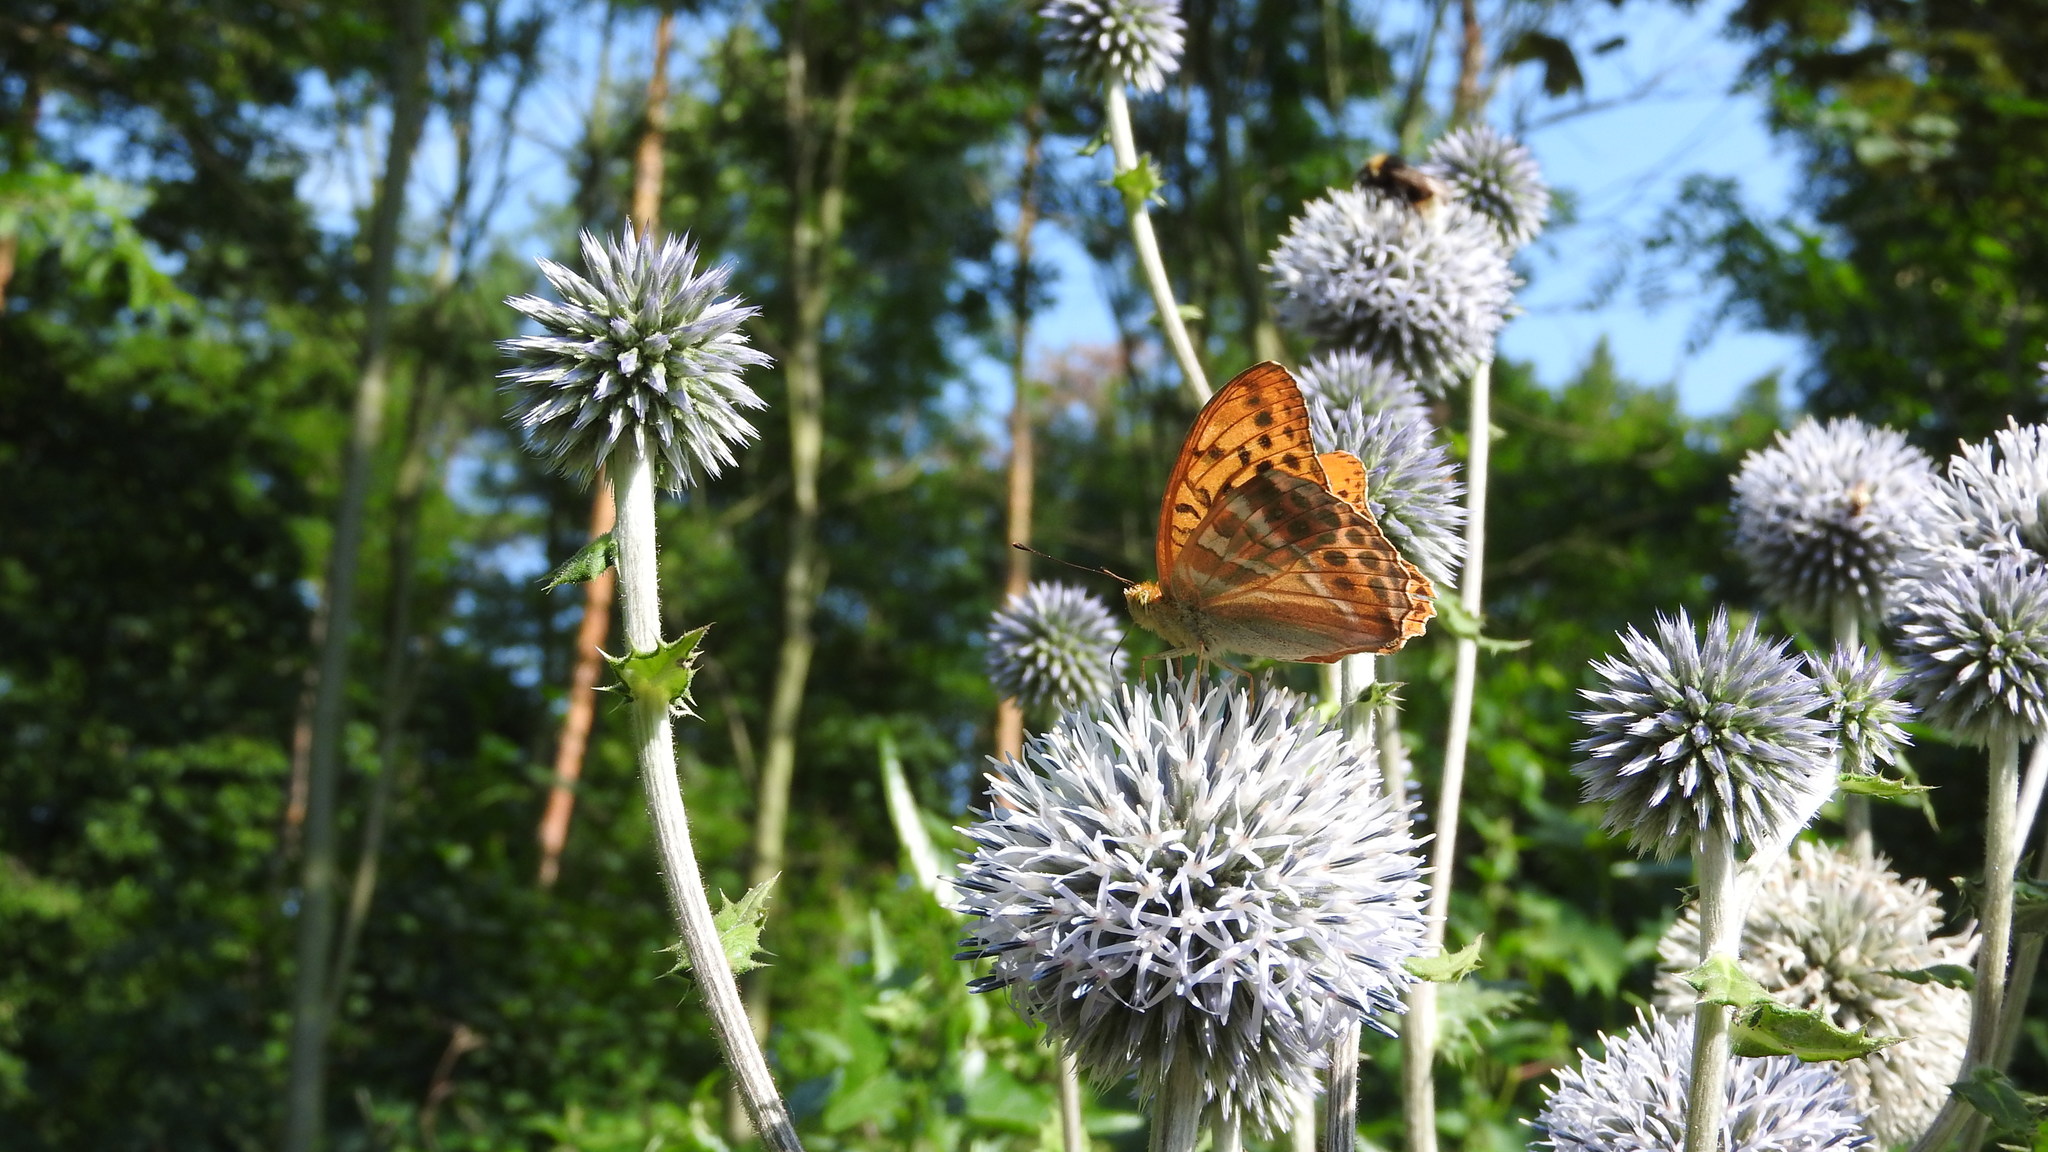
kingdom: Animalia
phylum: Arthropoda
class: Insecta
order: Lepidoptera
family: Nymphalidae
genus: Argynnis
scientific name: Argynnis paphia
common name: Silver-washed fritillary
